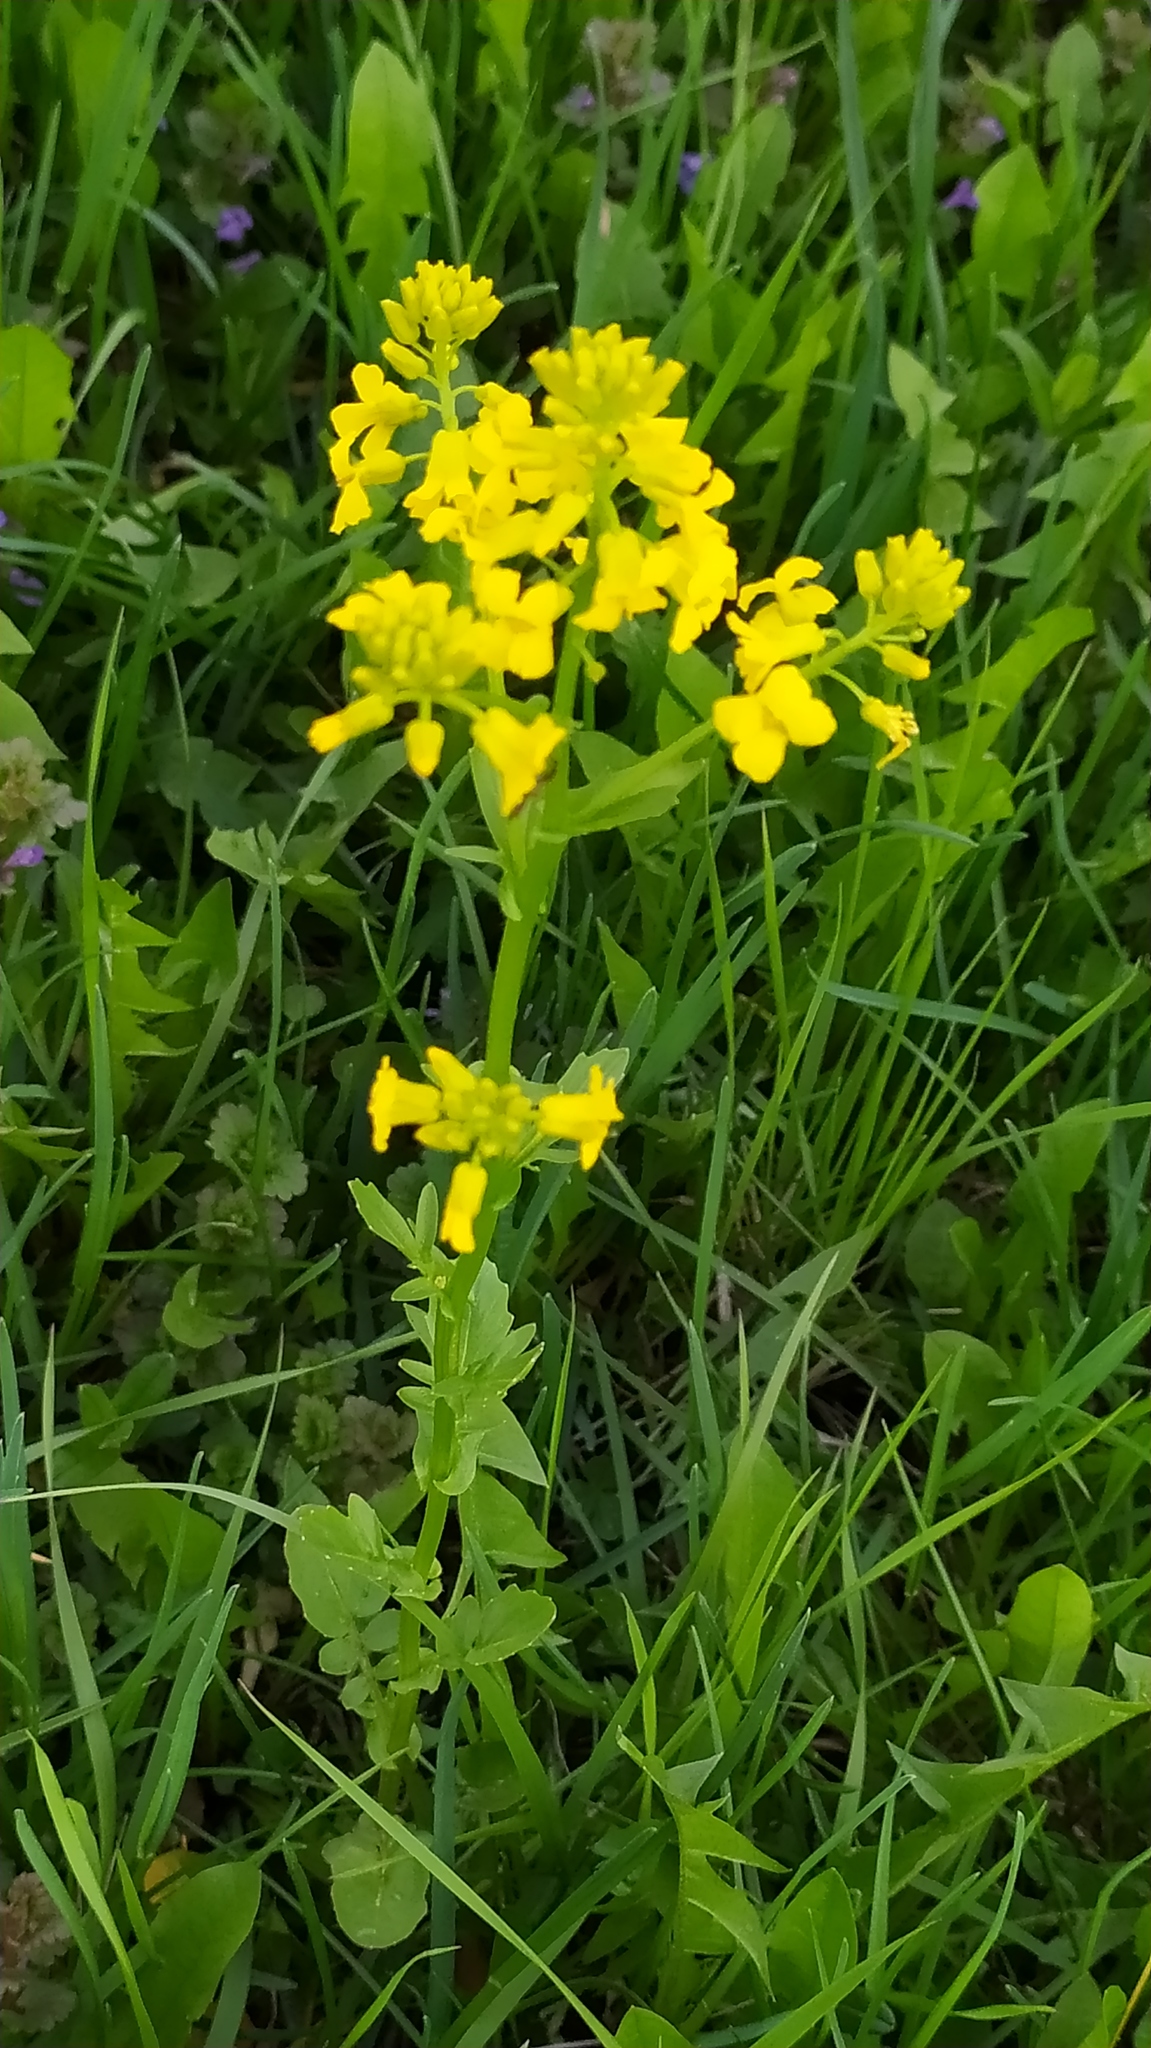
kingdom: Plantae
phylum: Tracheophyta
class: Magnoliopsida
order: Brassicales
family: Brassicaceae
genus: Barbarea
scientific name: Barbarea vulgaris
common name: Cressy-greens
